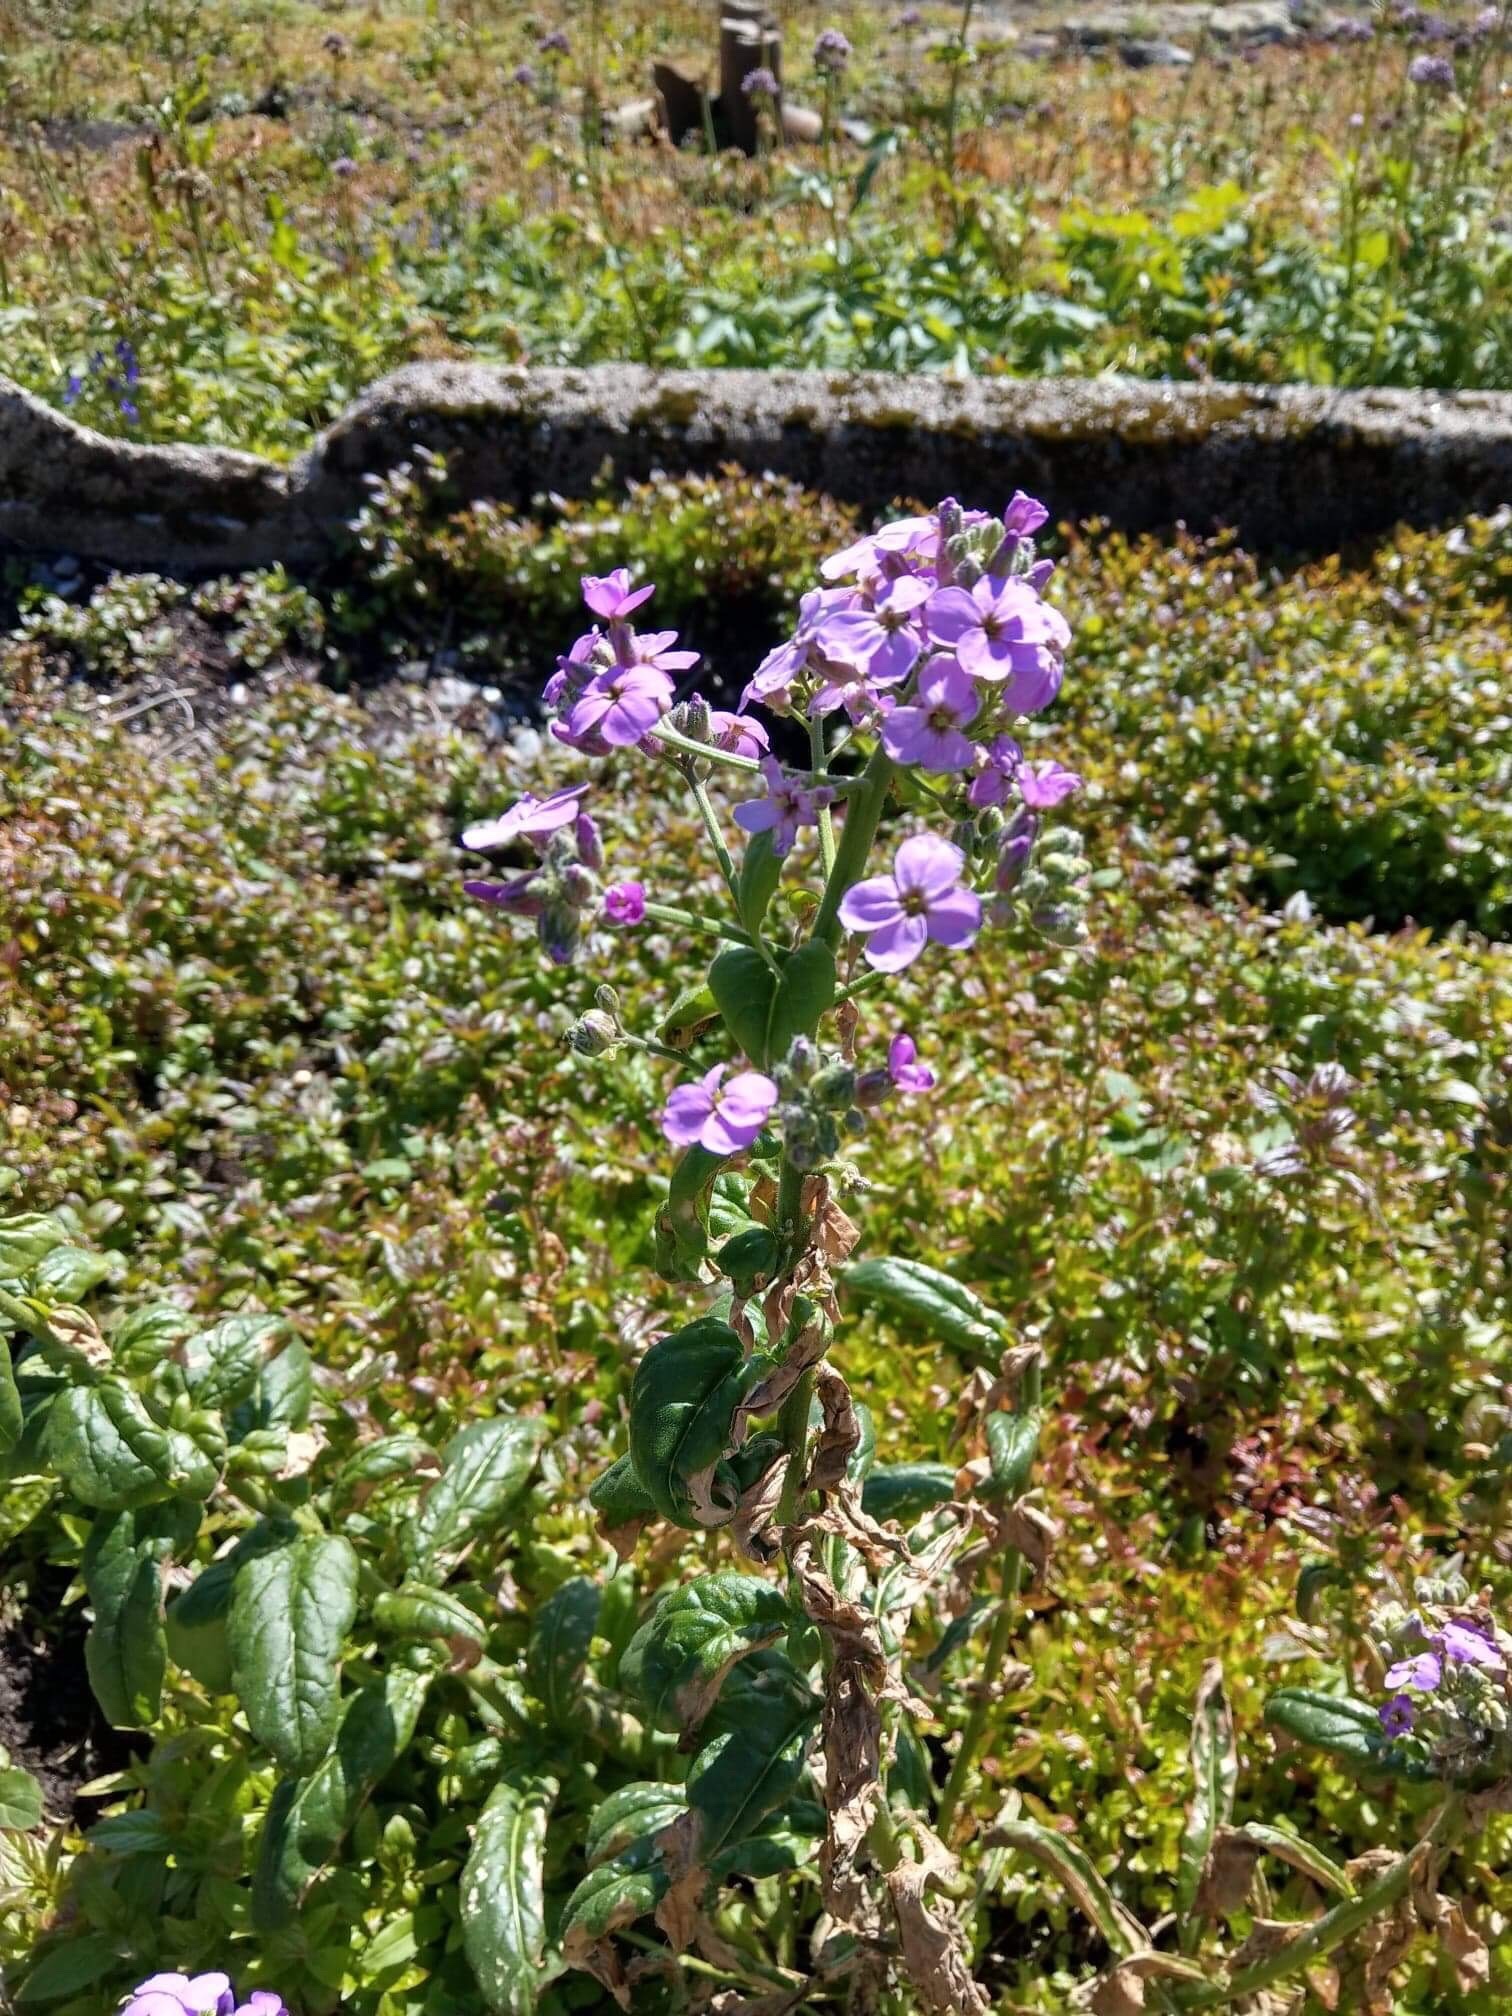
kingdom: Plantae
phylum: Tracheophyta
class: Magnoliopsida
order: Brassicales
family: Brassicaceae
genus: Hesperis
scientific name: Hesperis matronalis
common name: Dame's-violet
